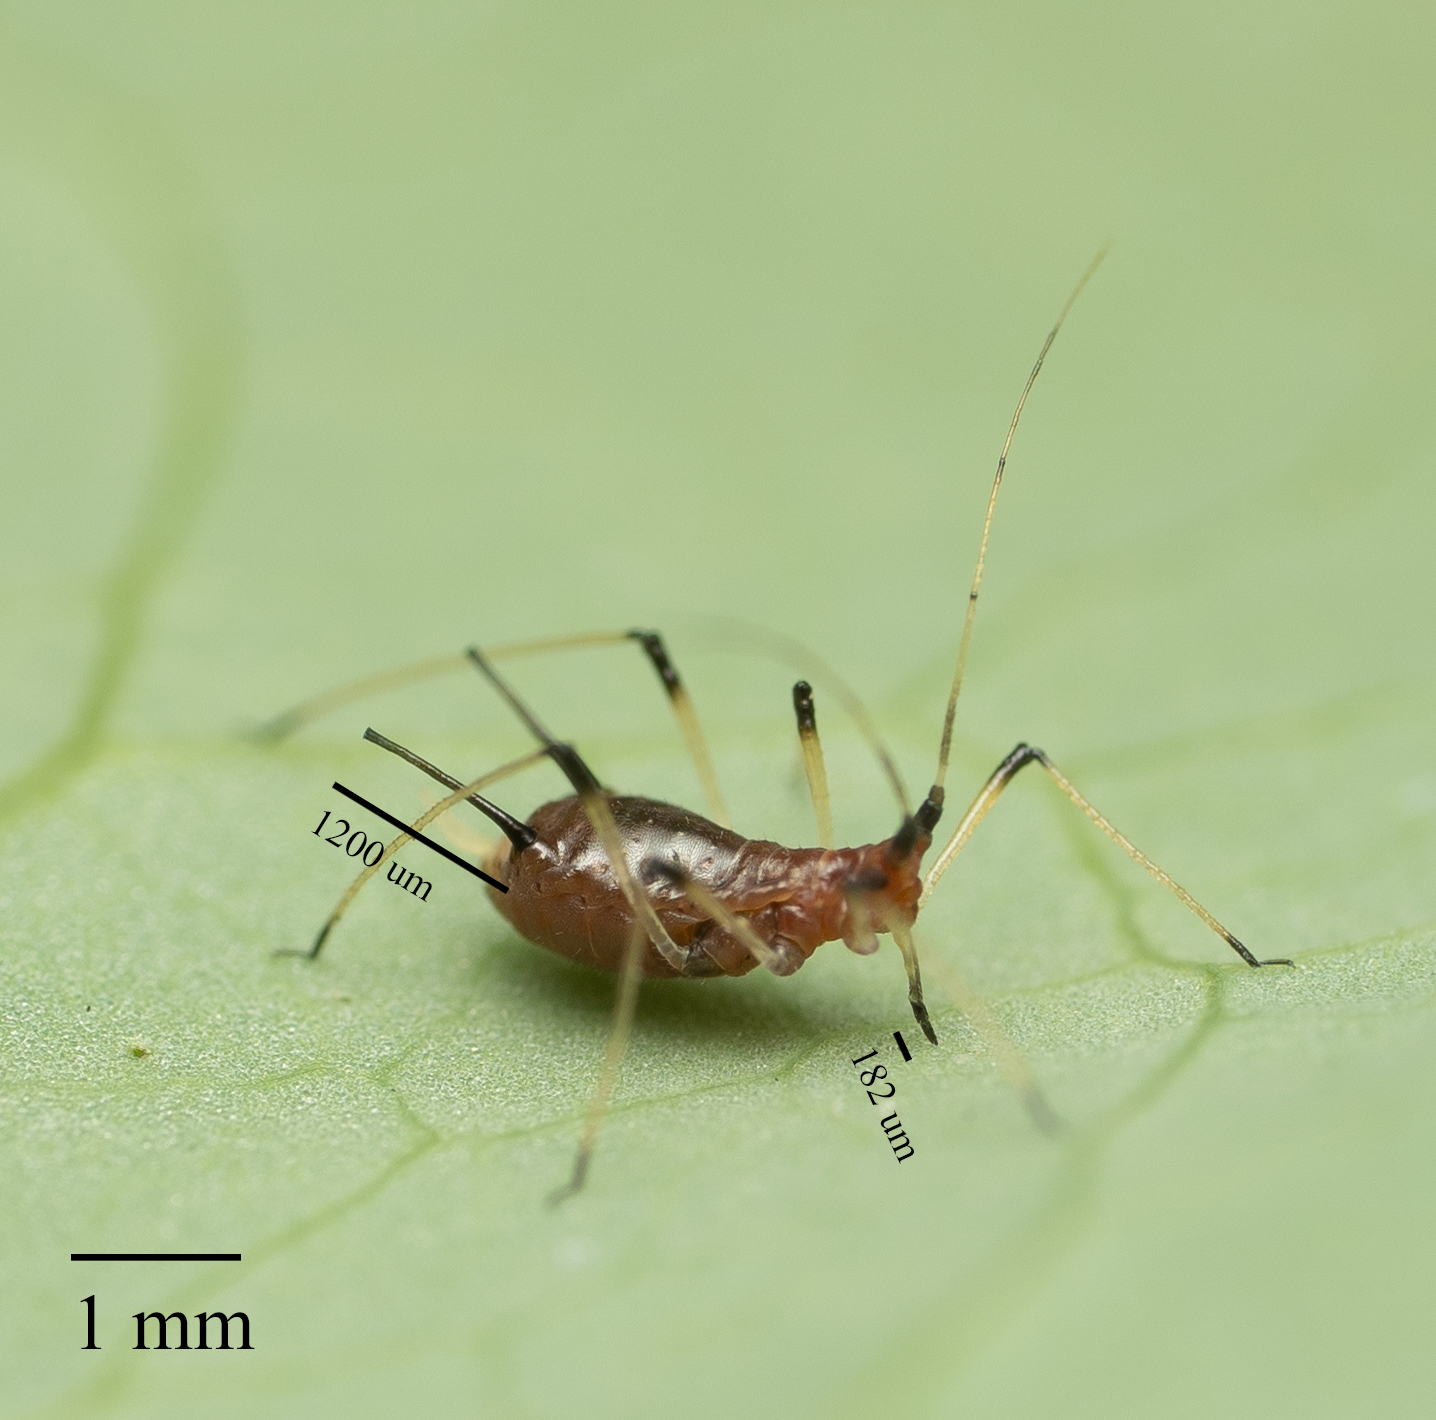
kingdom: Animalia
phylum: Arthropoda
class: Insecta
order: Hemiptera
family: Aphididae
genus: Uroleucon
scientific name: Uroleucon sonchi
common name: Large sowthistle aphid
